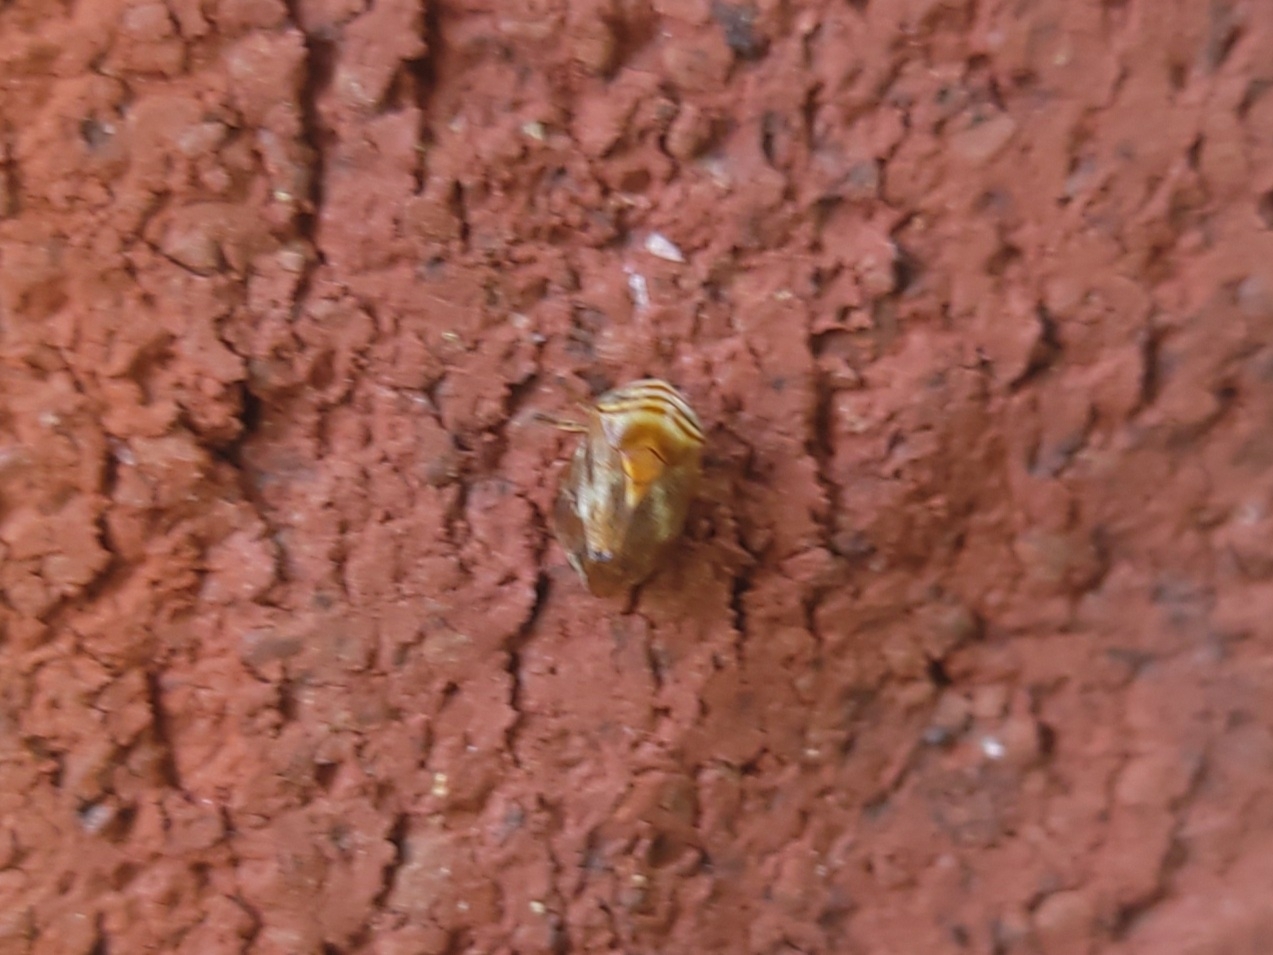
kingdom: Animalia
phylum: Arthropoda
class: Insecta
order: Hemiptera
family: Clastopteridae
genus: Clastoptera
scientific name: Clastoptera obtusa
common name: Alder spittlebug
